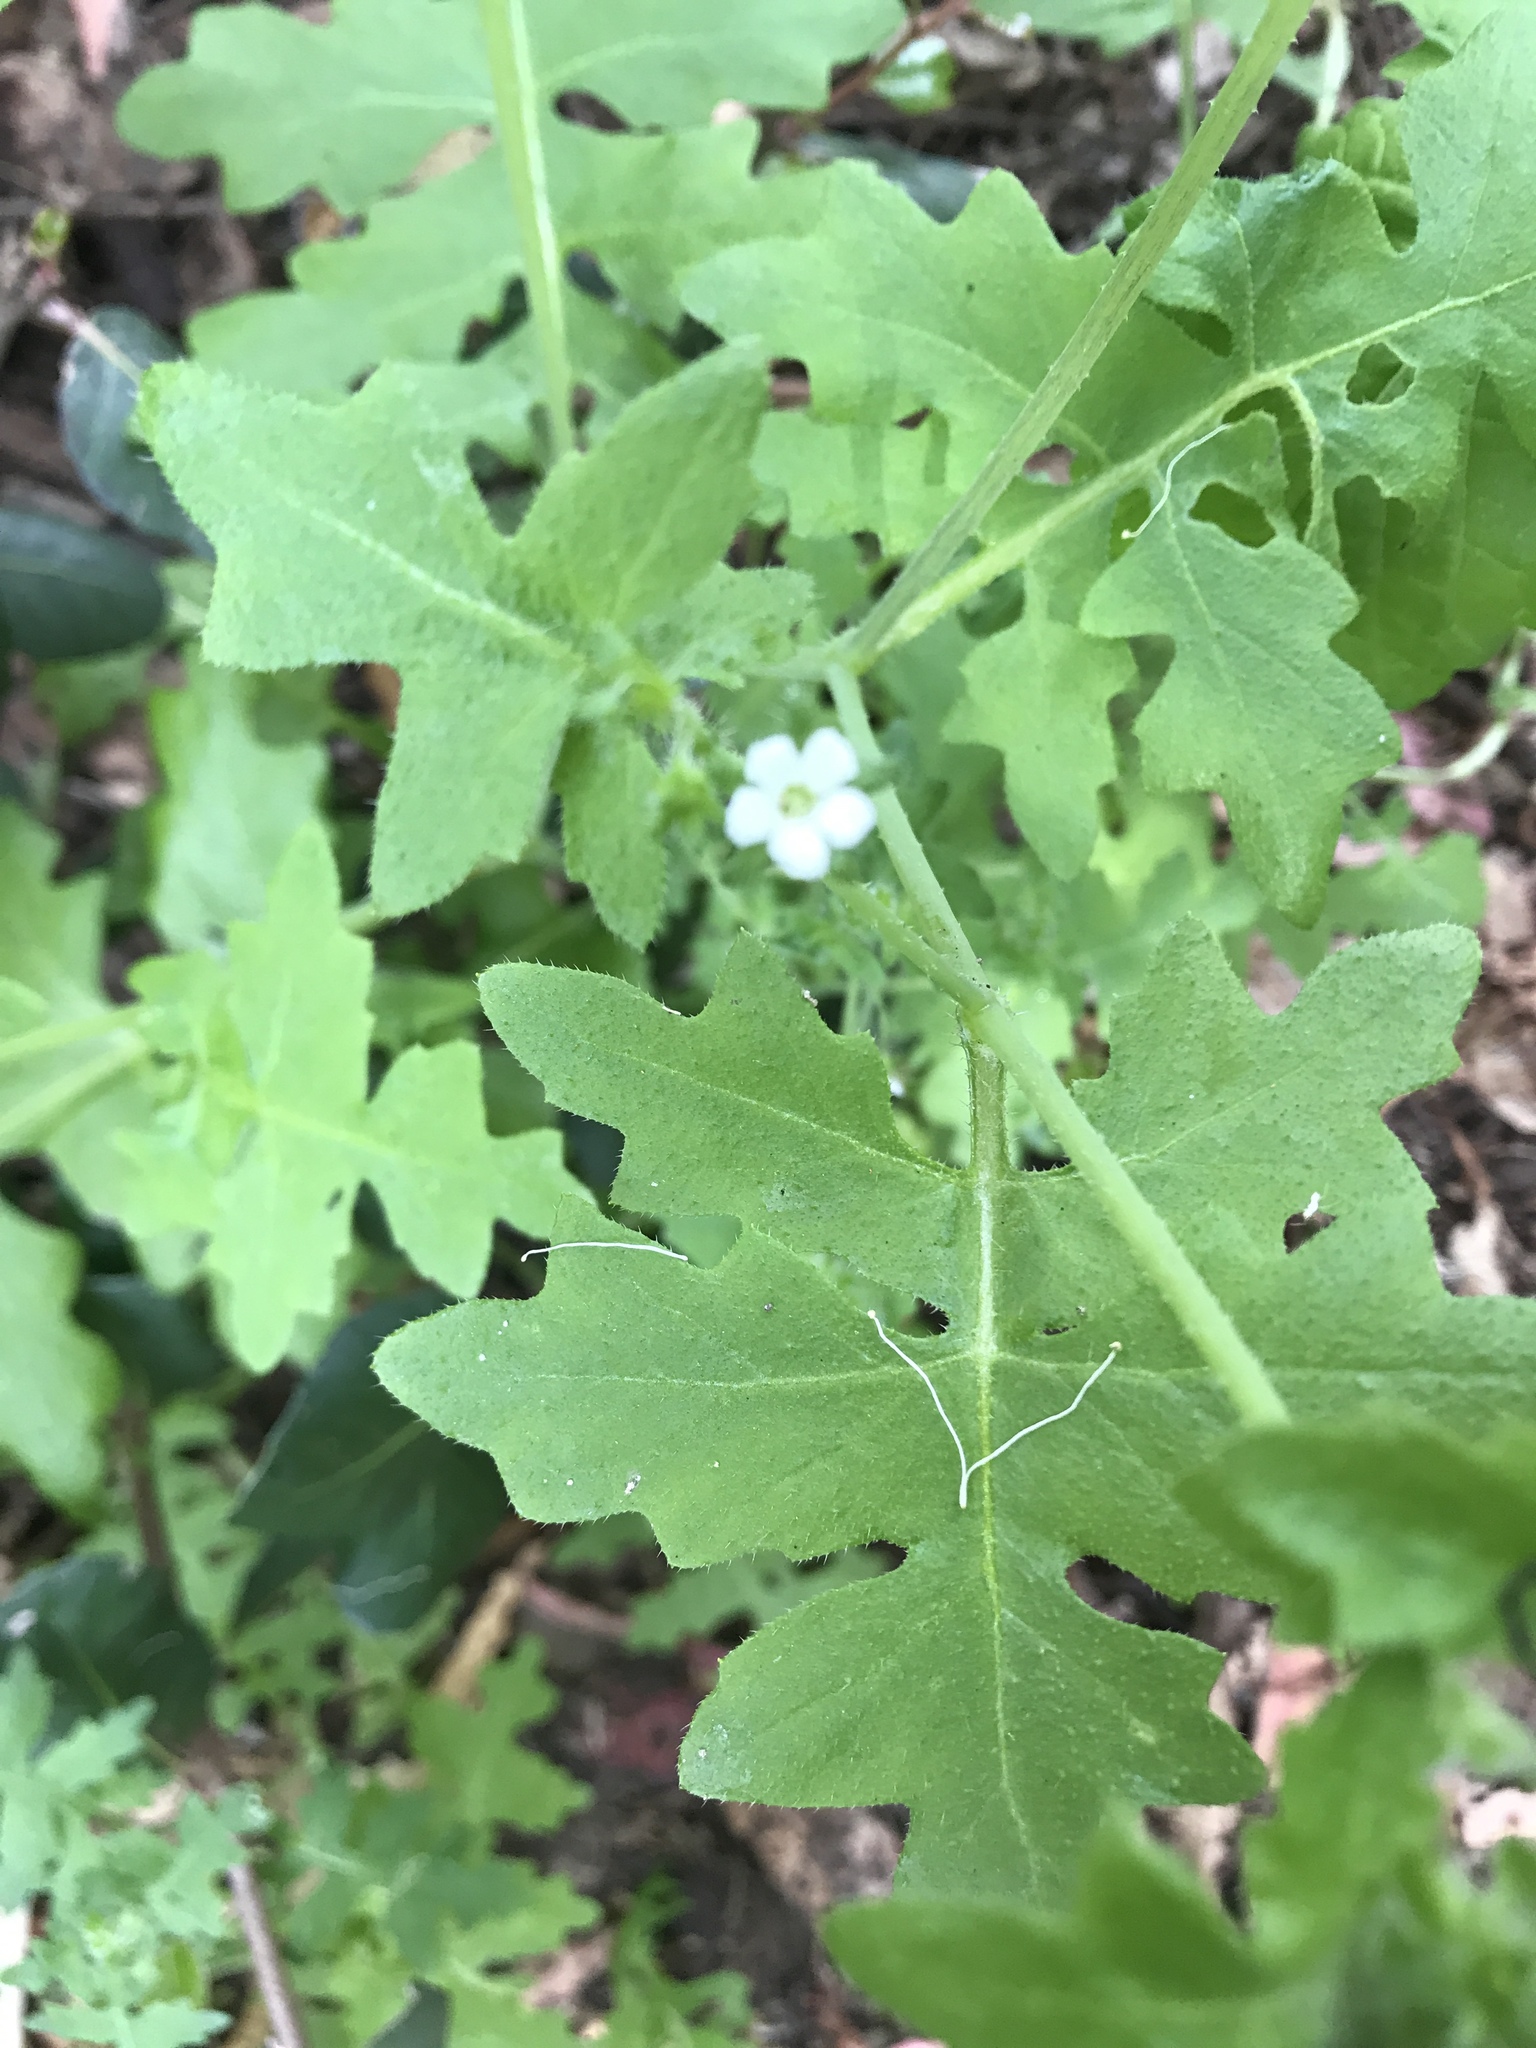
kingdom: Plantae
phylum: Tracheophyta
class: Magnoliopsida
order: Boraginales
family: Hydrophyllaceae
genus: Pholistoma
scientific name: Pholistoma racemosum
